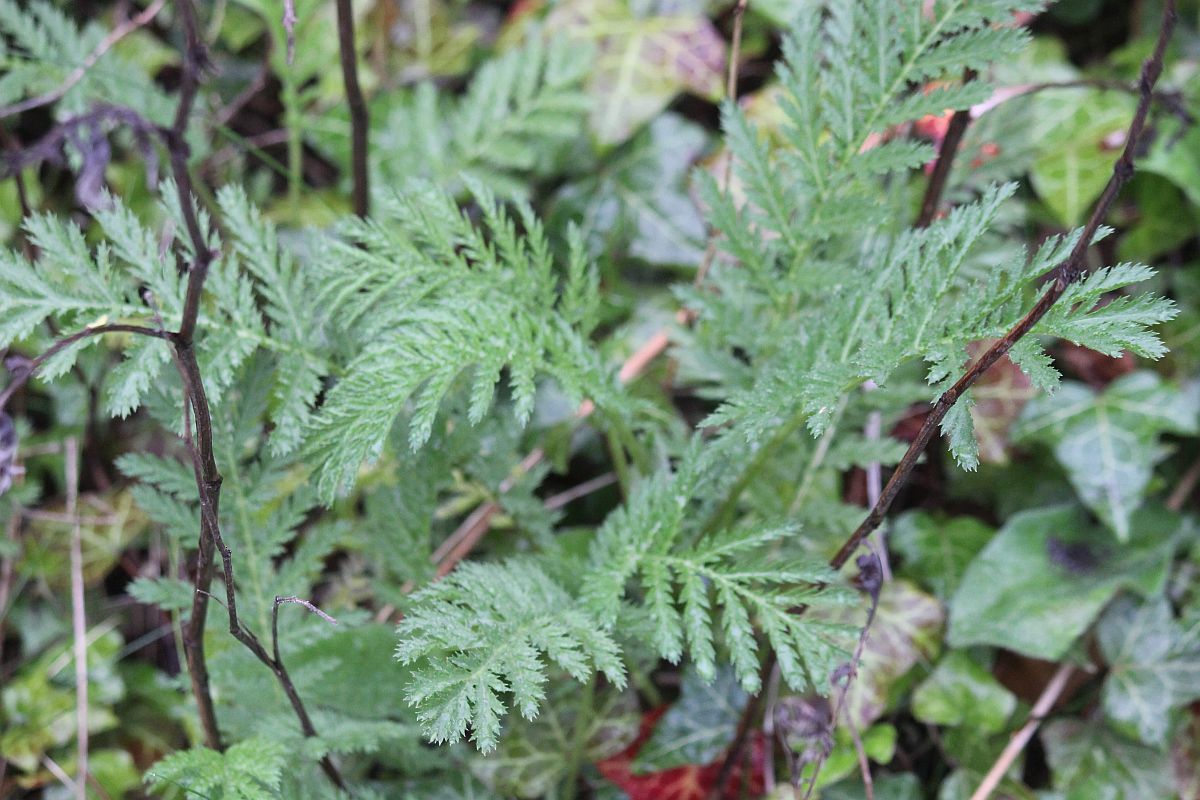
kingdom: Plantae
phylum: Tracheophyta
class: Magnoliopsida
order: Asterales
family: Asteraceae
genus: Tanacetum
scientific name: Tanacetum vulgare
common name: Common tansy
